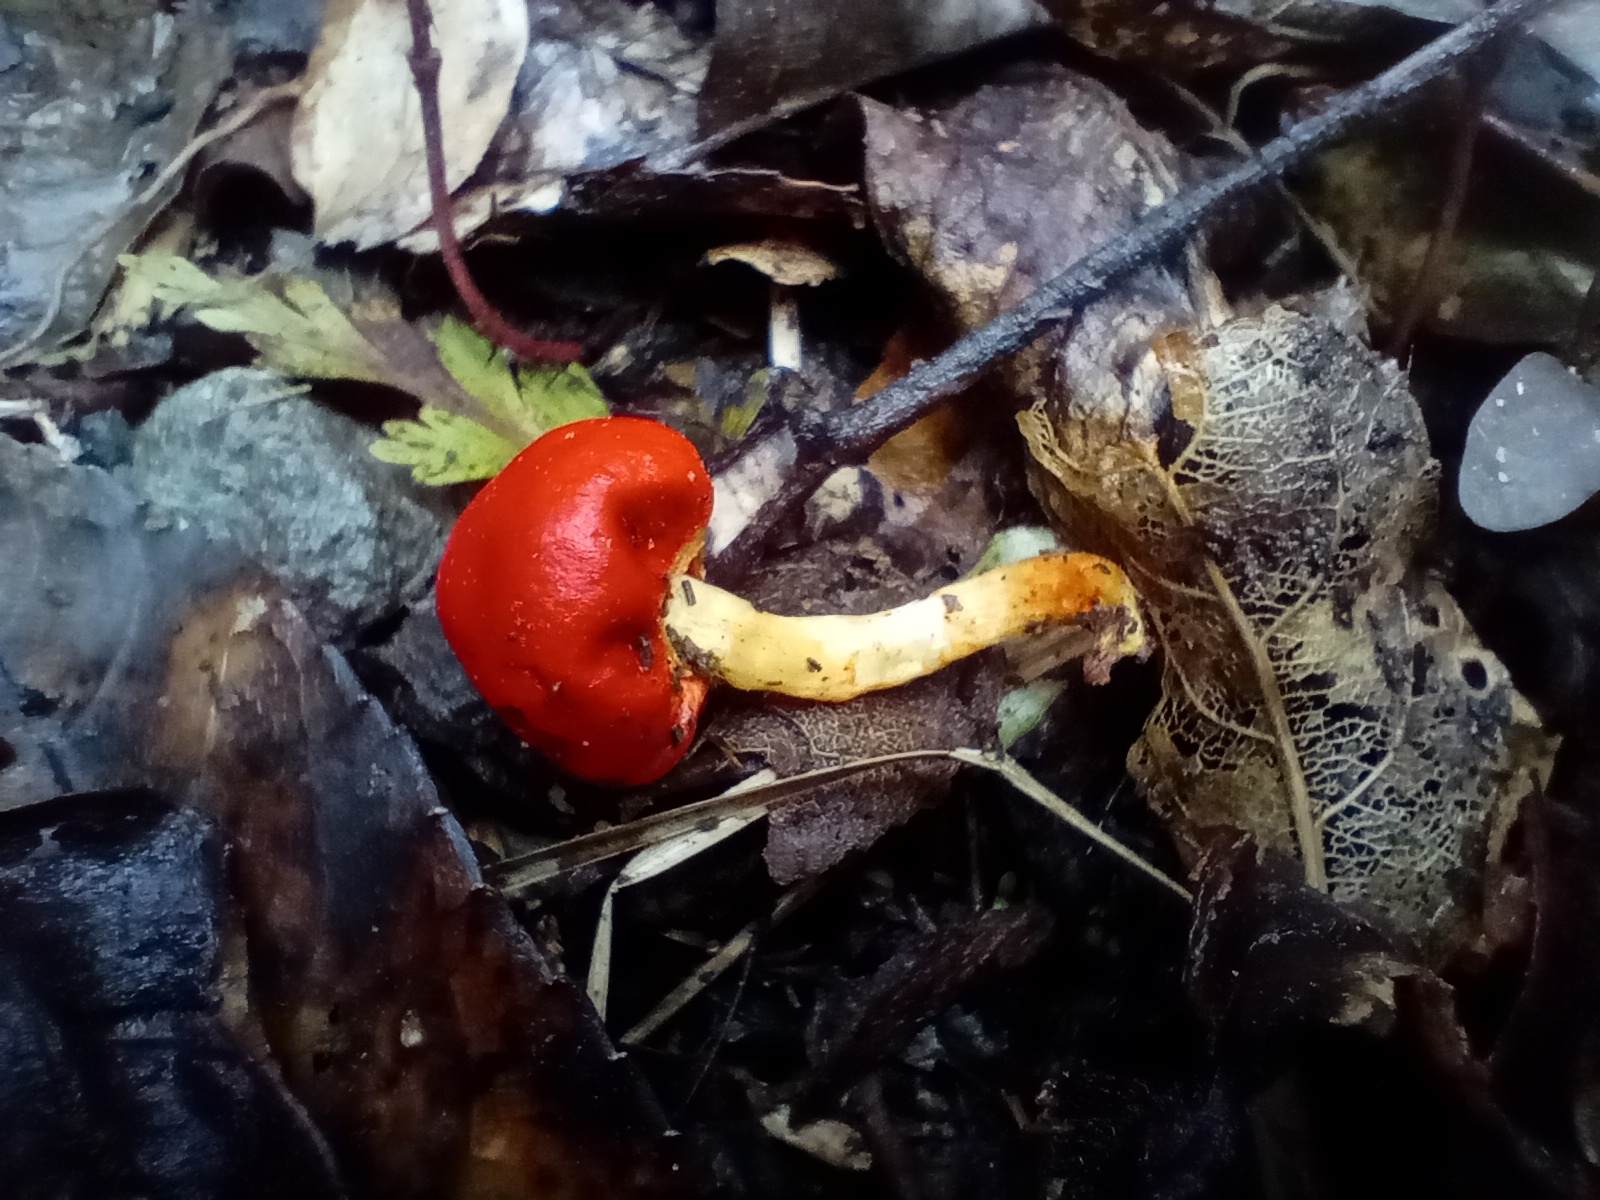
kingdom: Fungi
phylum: Basidiomycota
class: Agaricomycetes
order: Agaricales
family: Strophariaceae
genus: Leratiomyces
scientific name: Leratiomyces erythrocephalus
